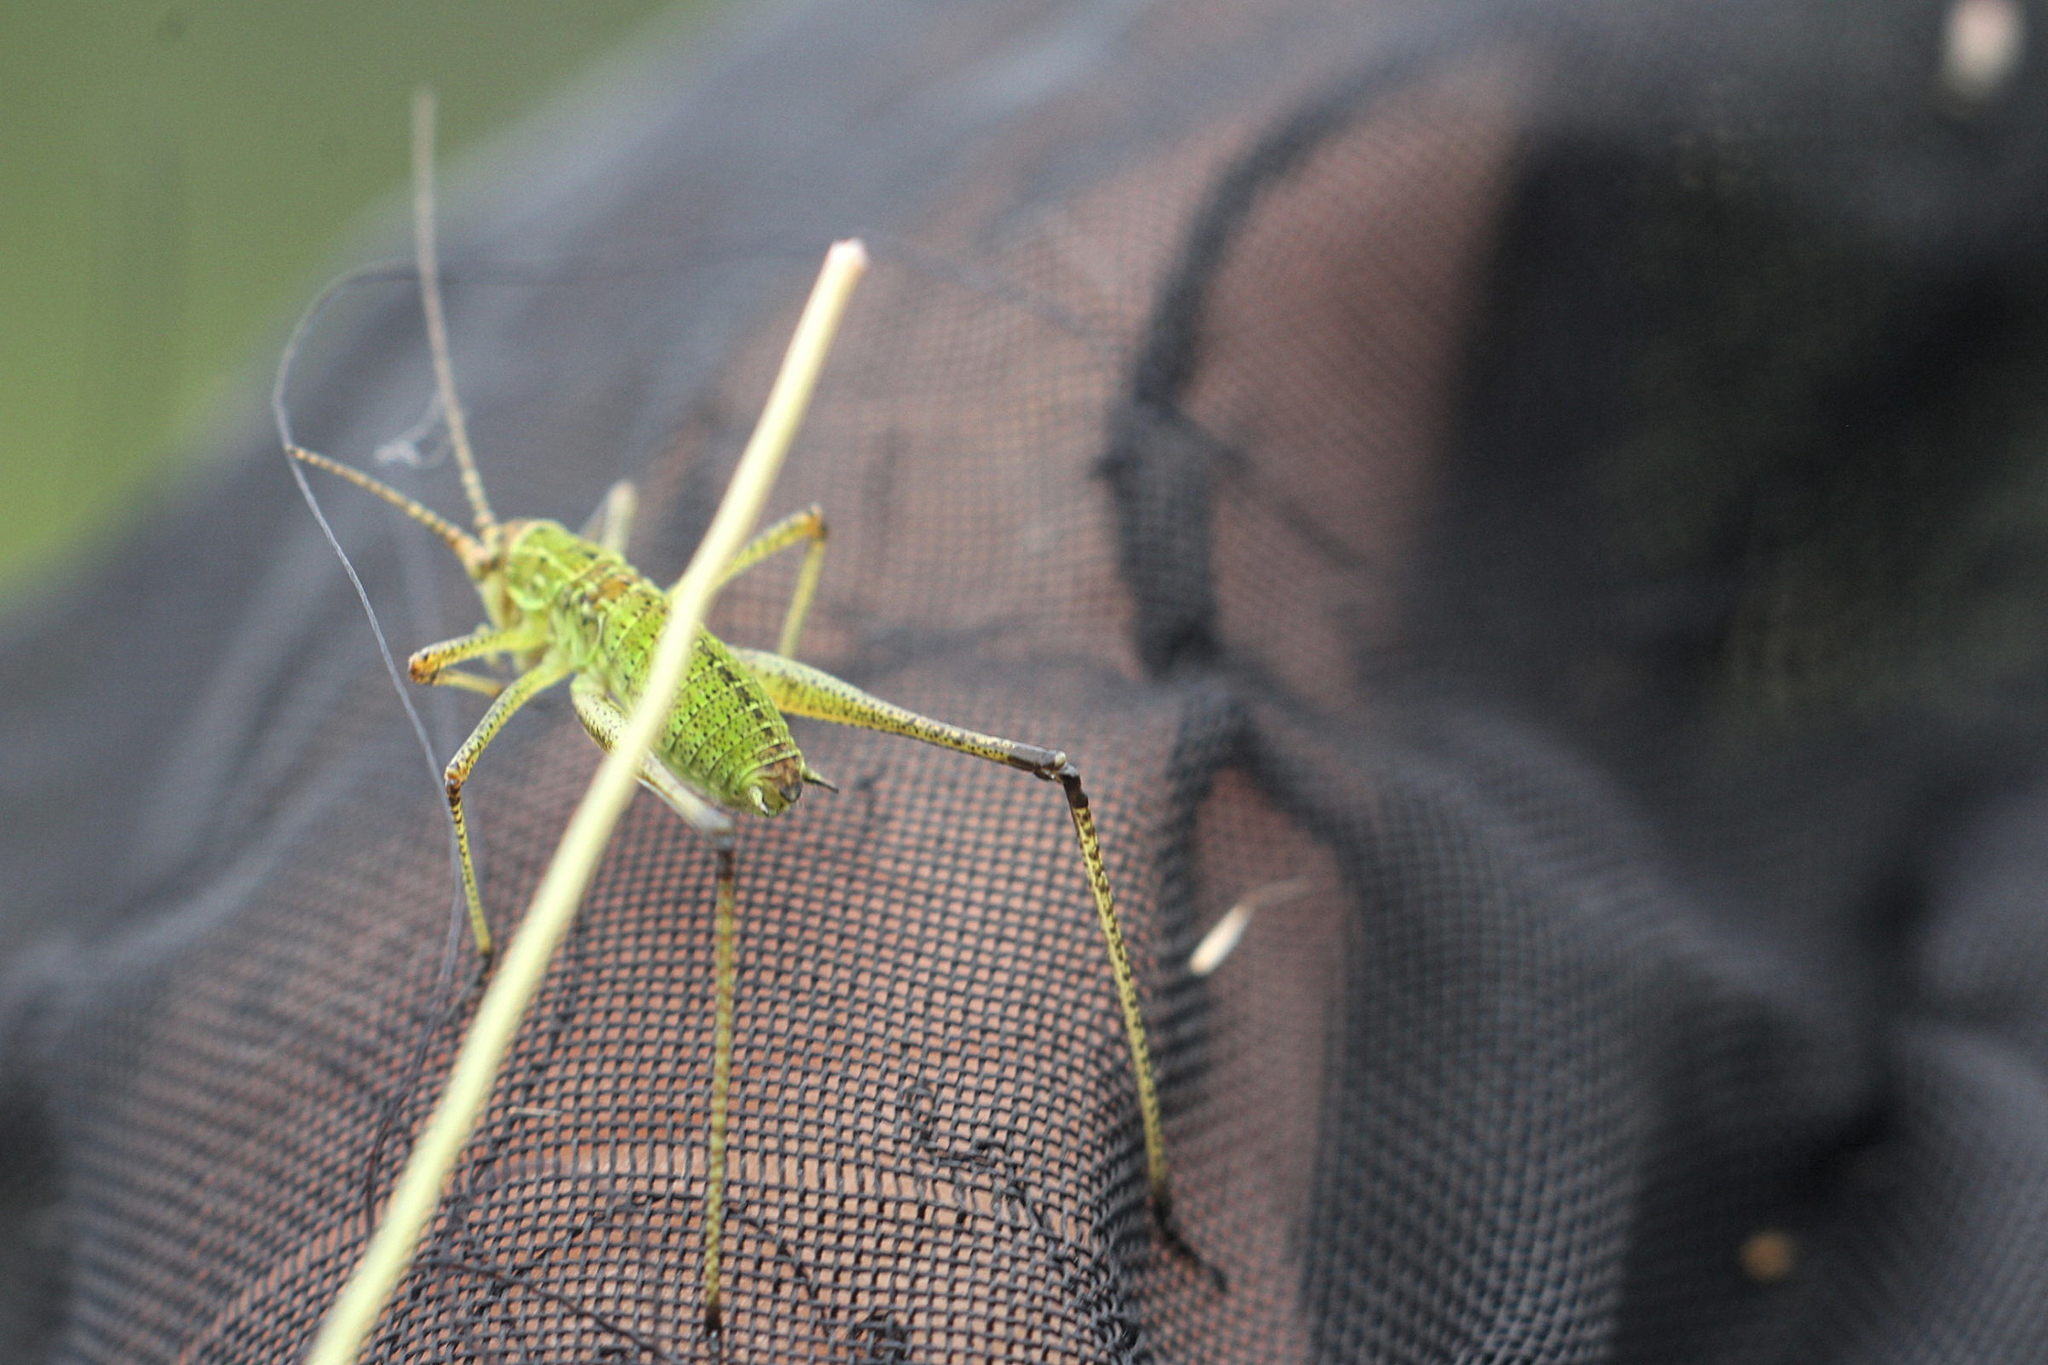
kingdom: Animalia
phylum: Arthropoda
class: Insecta
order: Orthoptera
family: Tettigoniidae
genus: Phaneroptera
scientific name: Phaneroptera falcata
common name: Sickle-bearing bush-cricket
